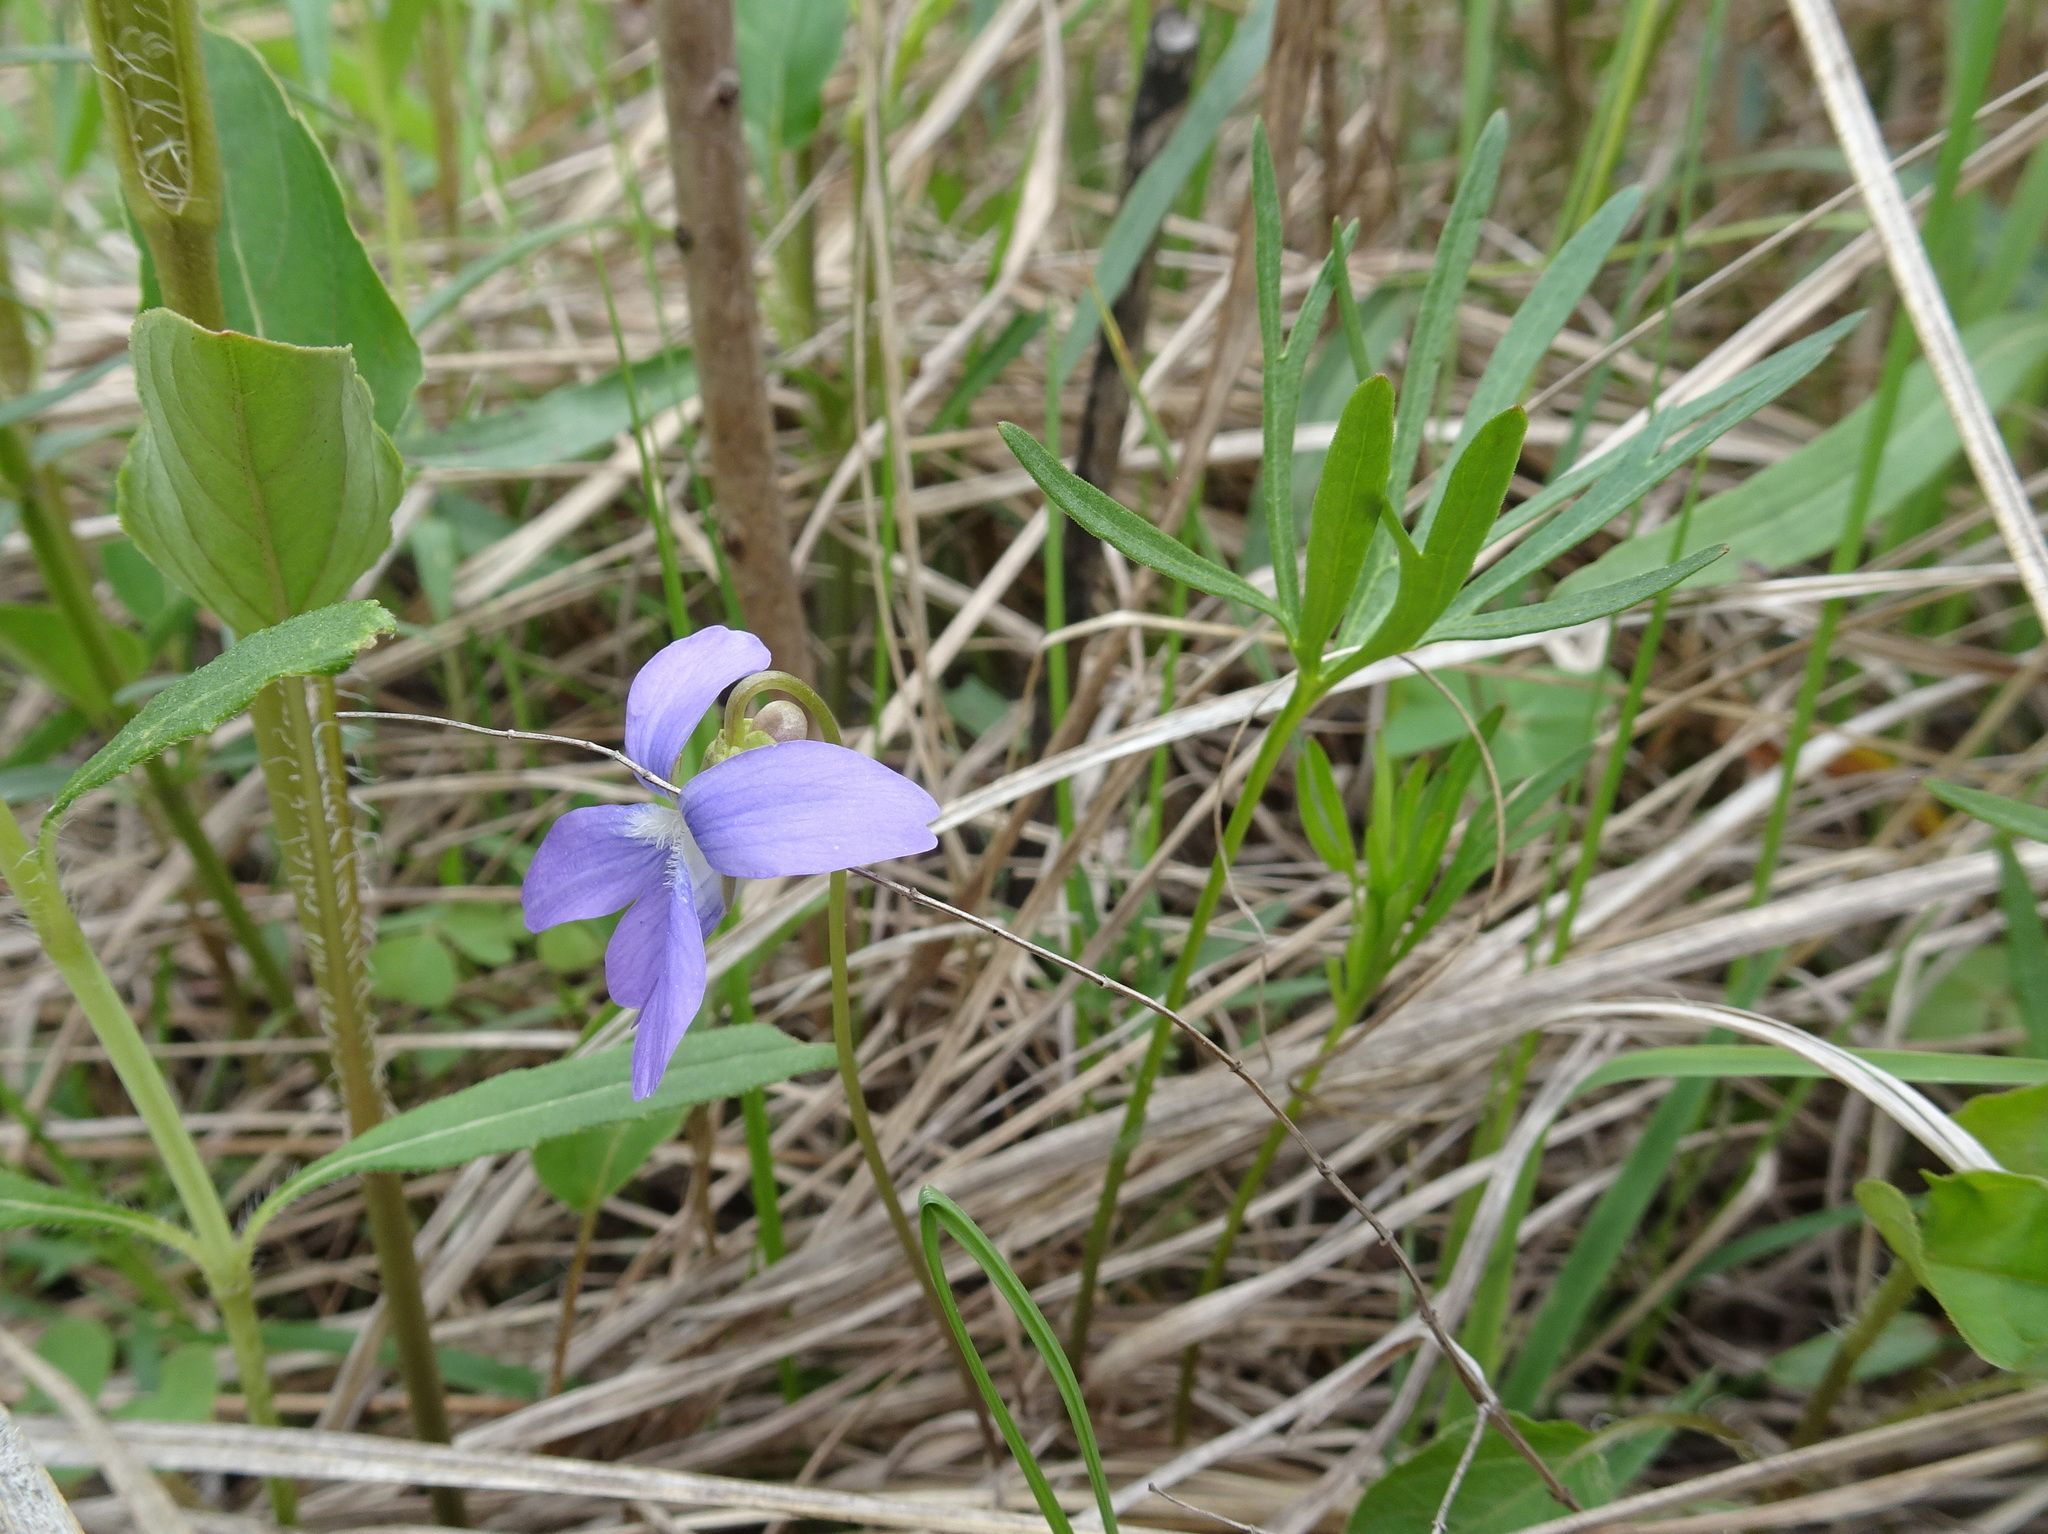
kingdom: Plantae
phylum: Tracheophyta
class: Magnoliopsida
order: Malpighiales
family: Violaceae
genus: Viola
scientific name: Viola pedatifida
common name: Prairie violet
